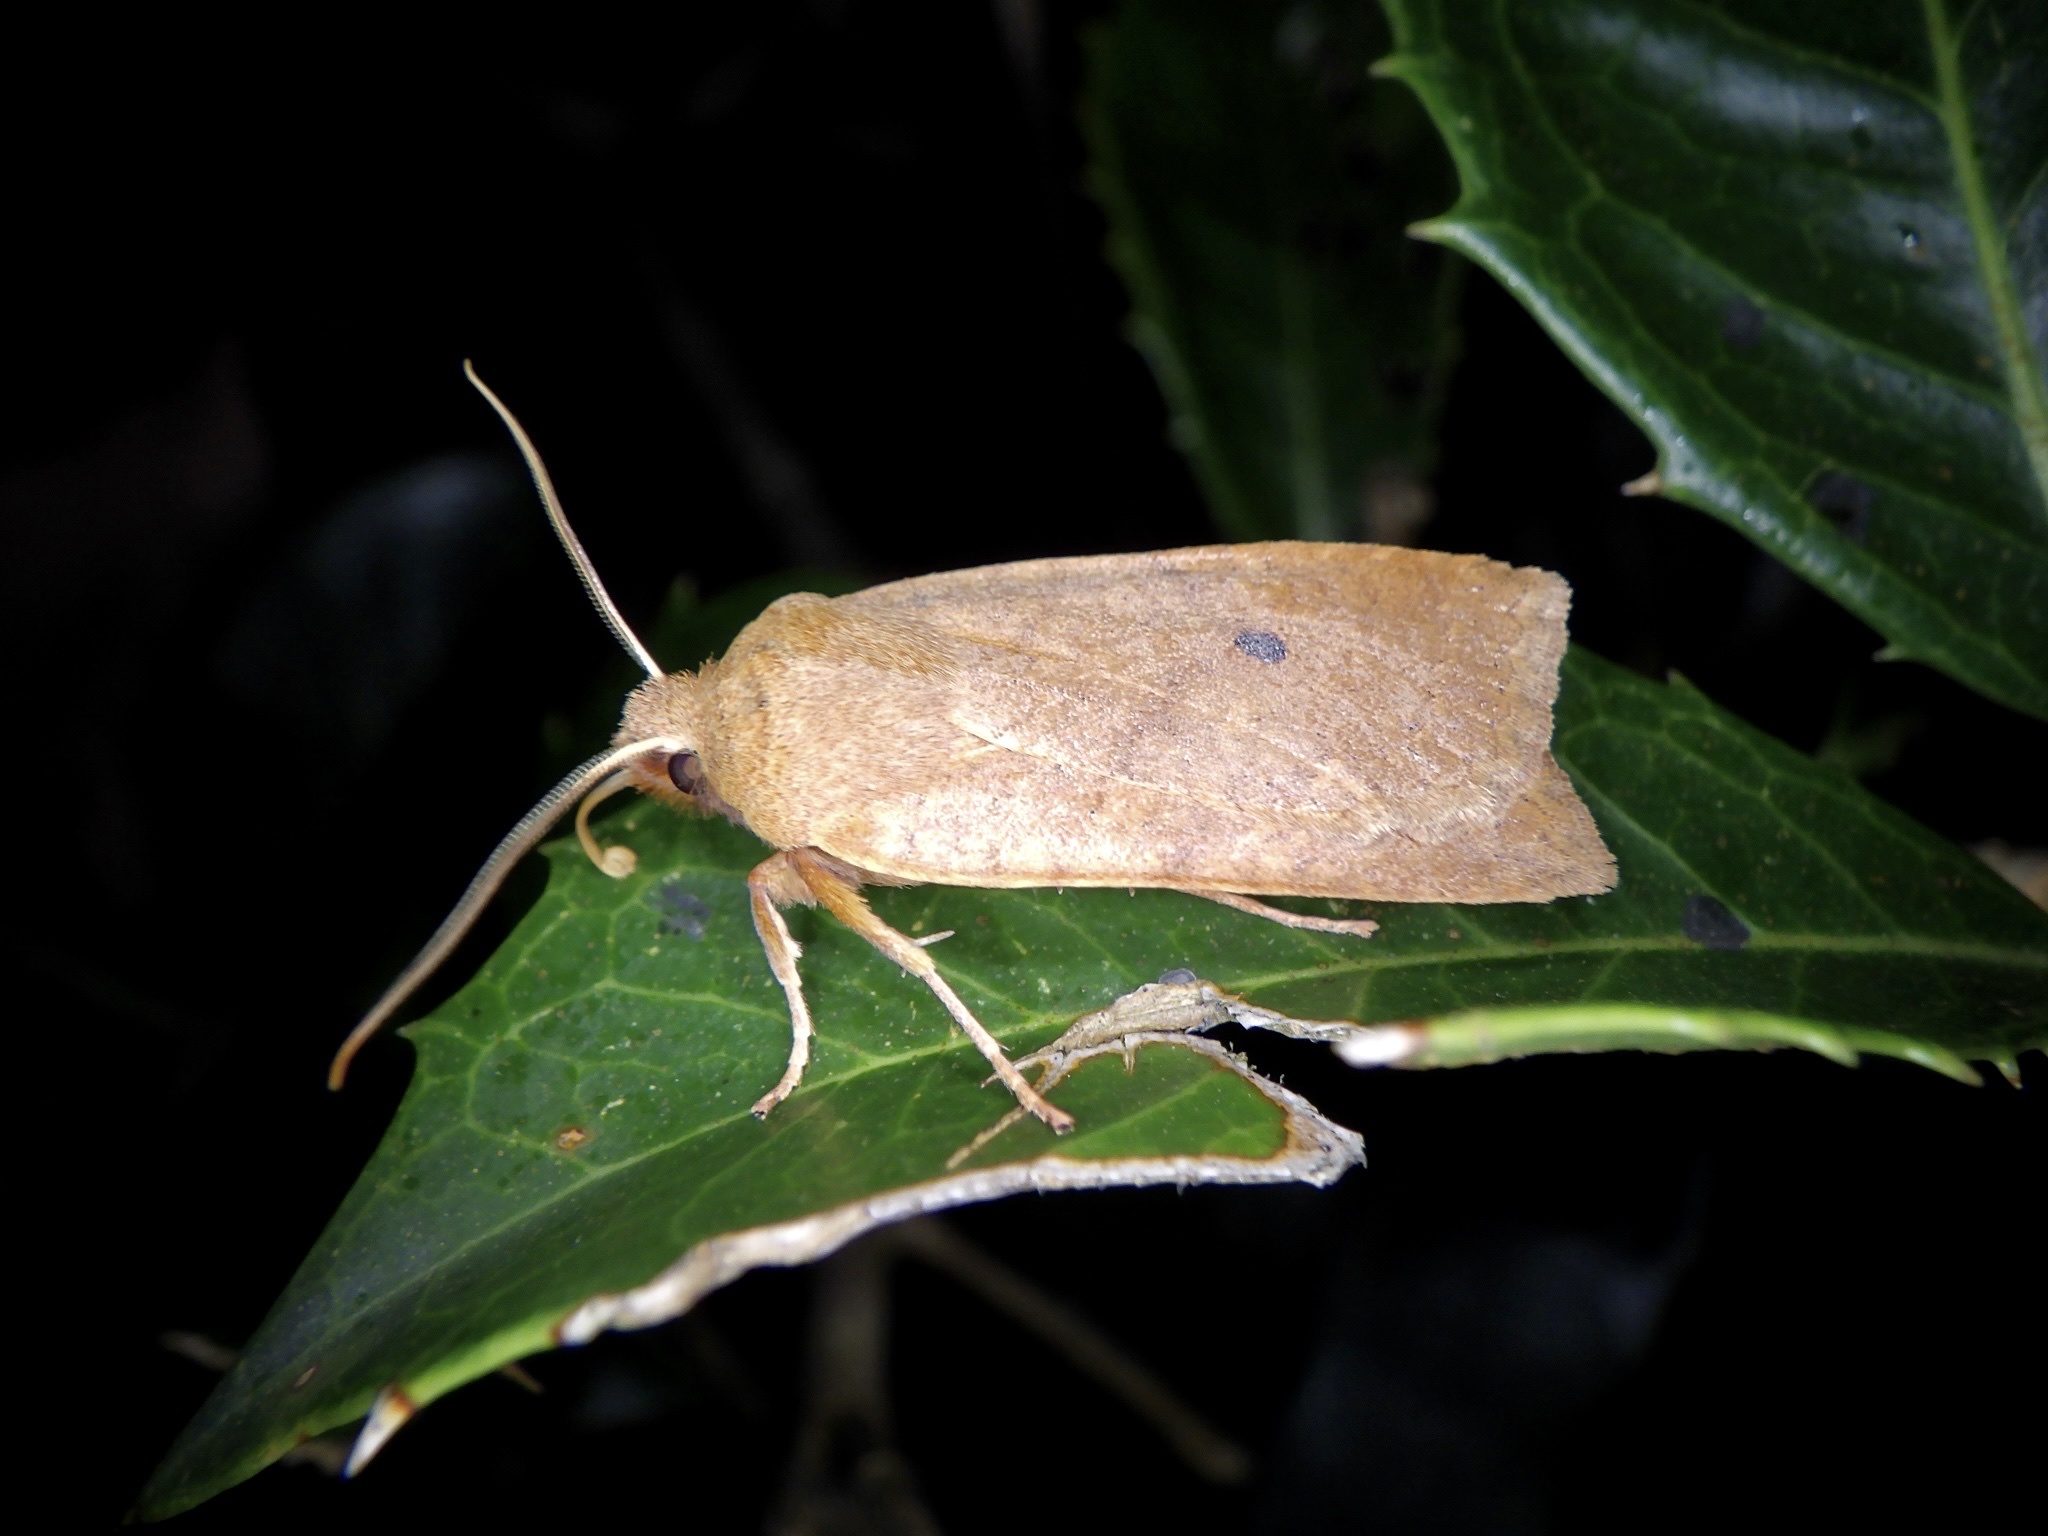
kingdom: Animalia
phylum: Arthropoda
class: Insecta
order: Lepidoptera
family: Noctuidae
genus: Conistra
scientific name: Conistra albipuncta
